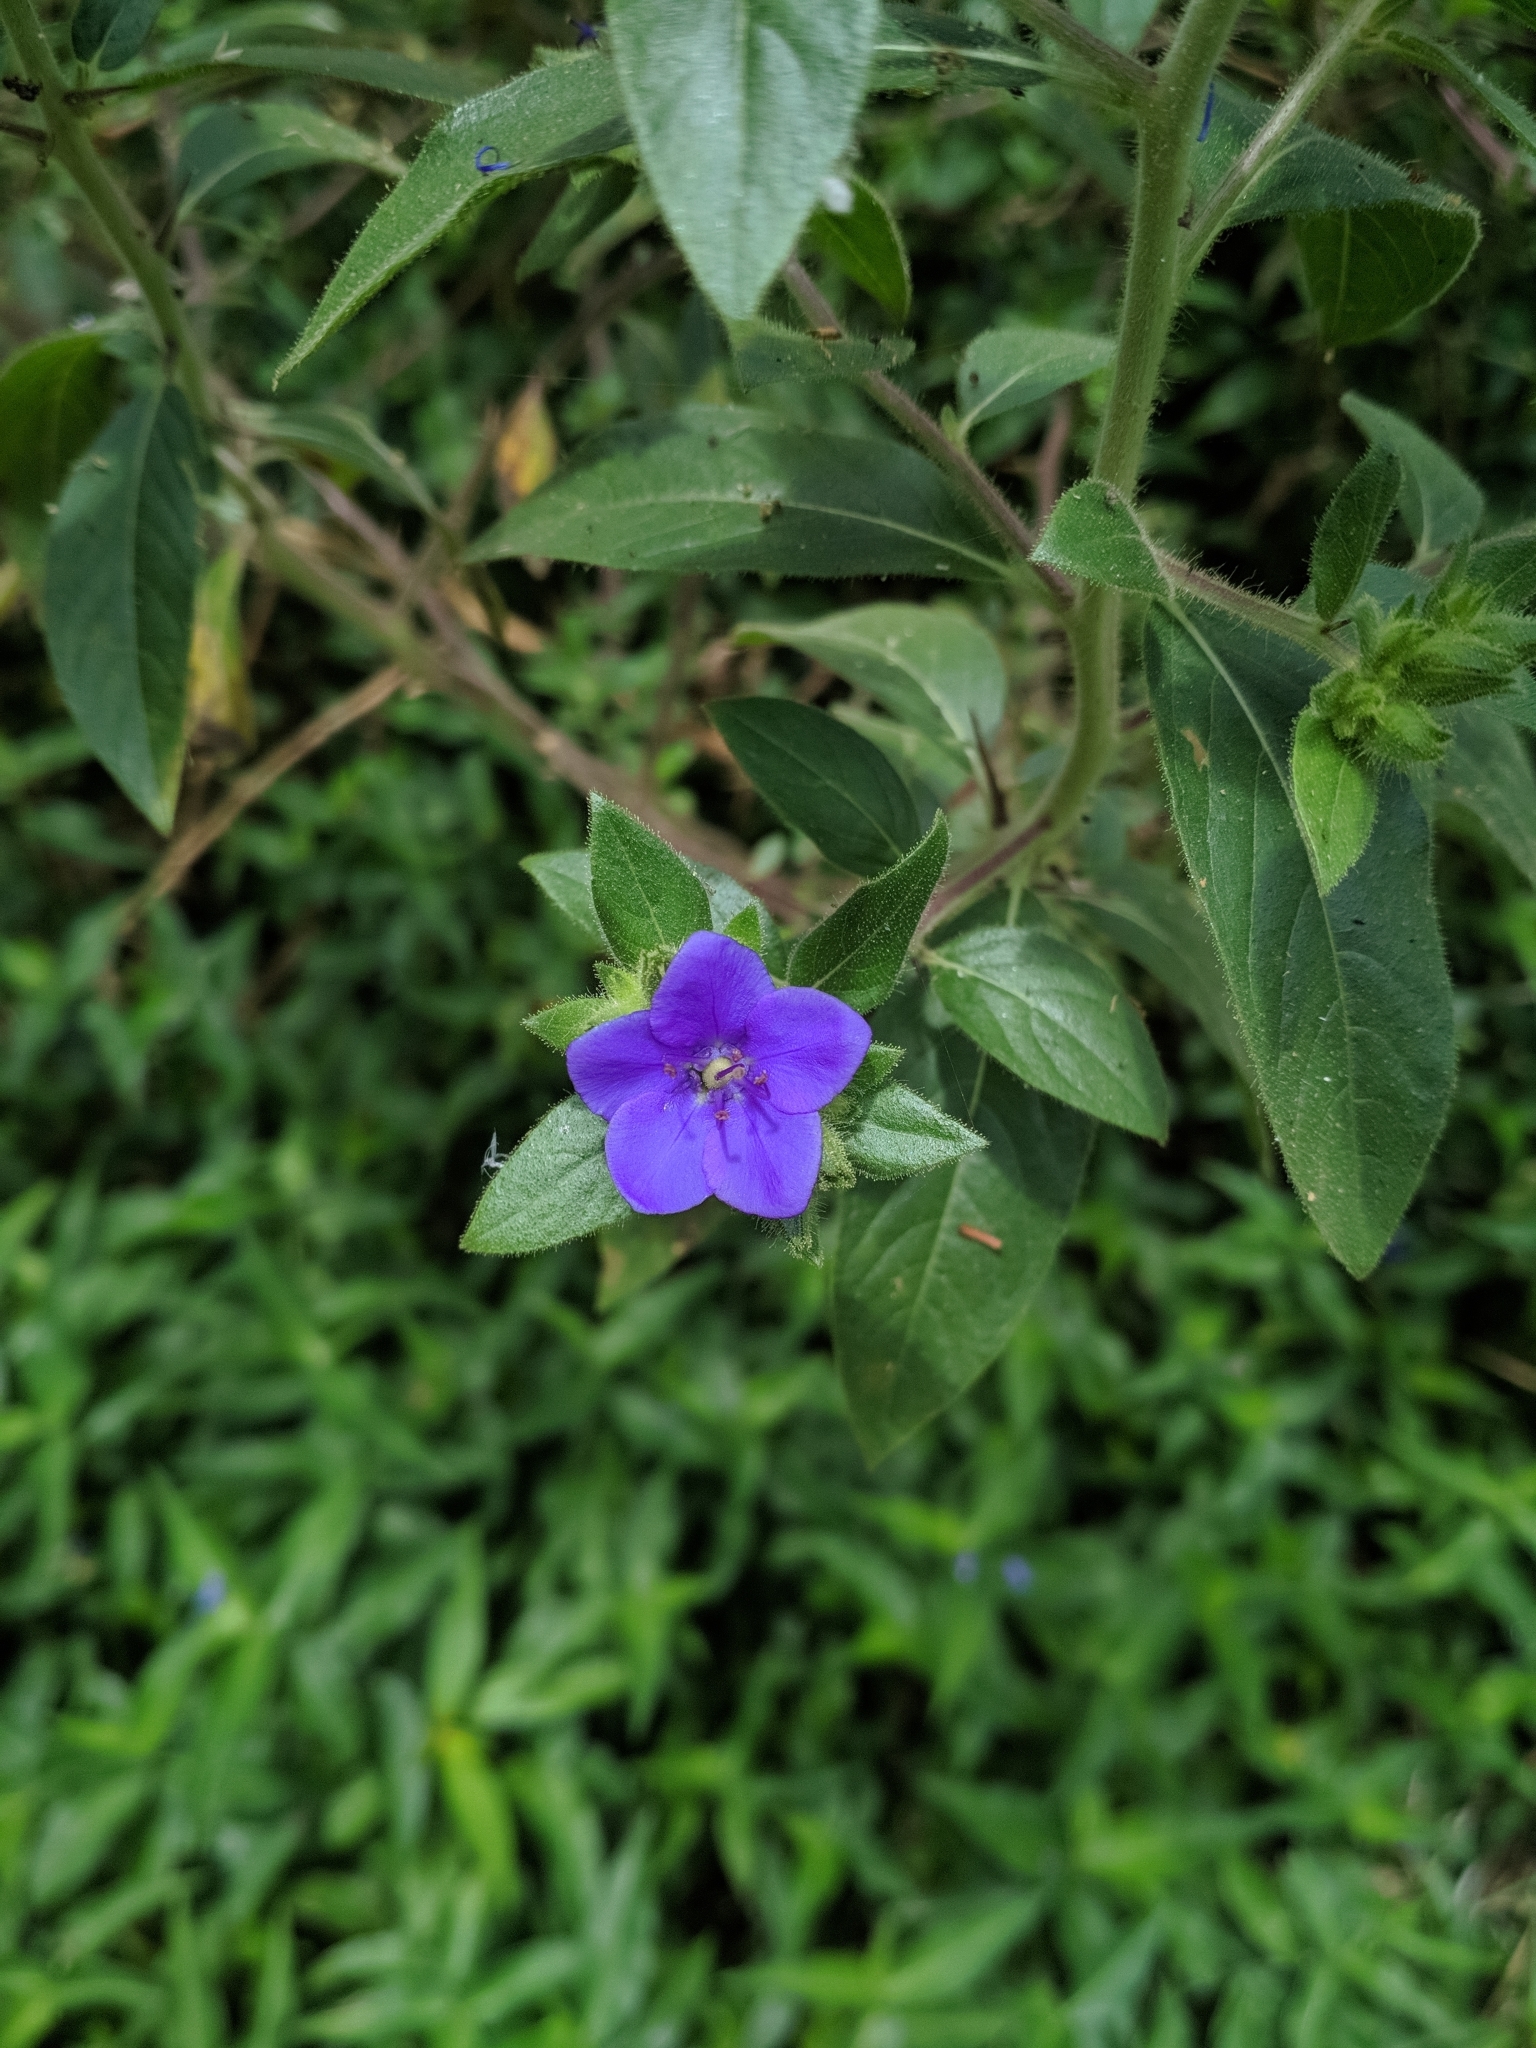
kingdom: Plantae
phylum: Tracheophyta
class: Magnoliopsida
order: Solanales
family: Hydroleaceae
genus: Hydrolea
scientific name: Hydrolea spinosa
